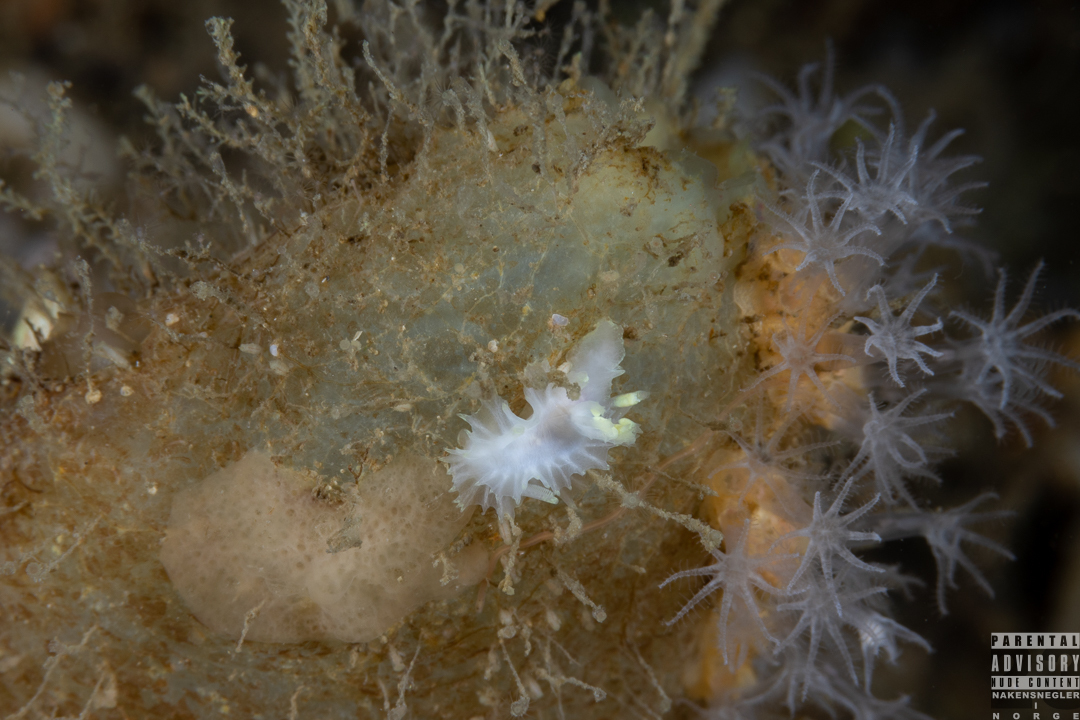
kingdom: Animalia
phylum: Mollusca
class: Gastropoda
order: Nudibranchia
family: Goniodorididae
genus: Lophodoris
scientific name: Lophodoris danielsseni
